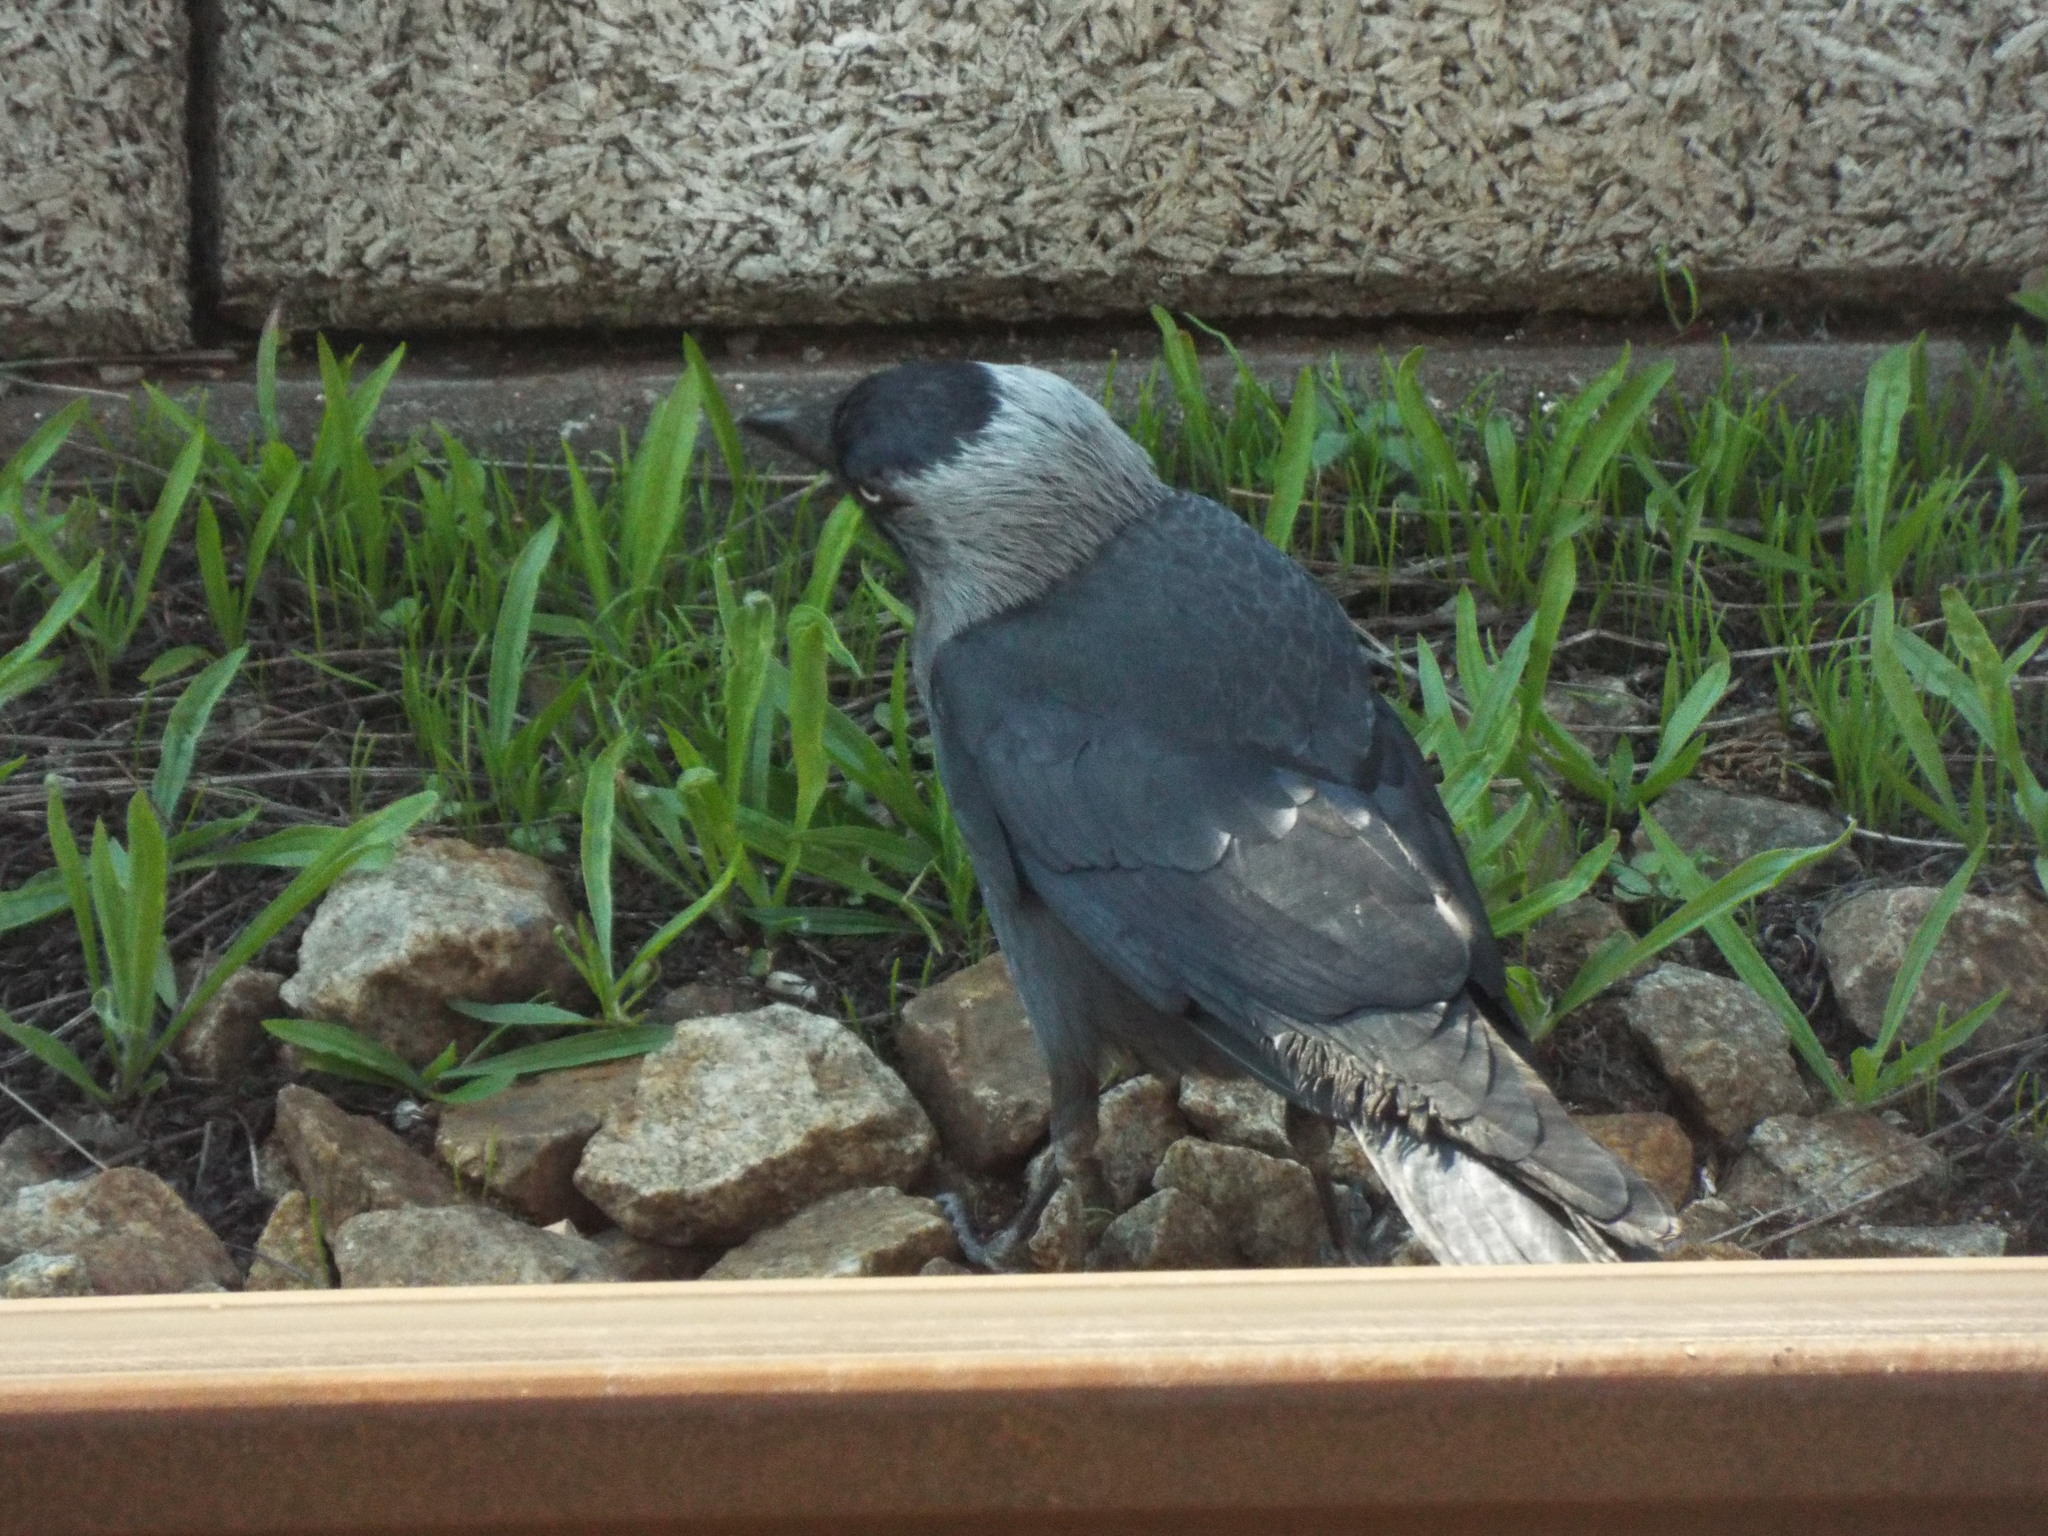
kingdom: Animalia
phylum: Chordata
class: Aves
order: Passeriformes
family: Corvidae
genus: Coloeus
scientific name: Coloeus monedula
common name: Western jackdaw
